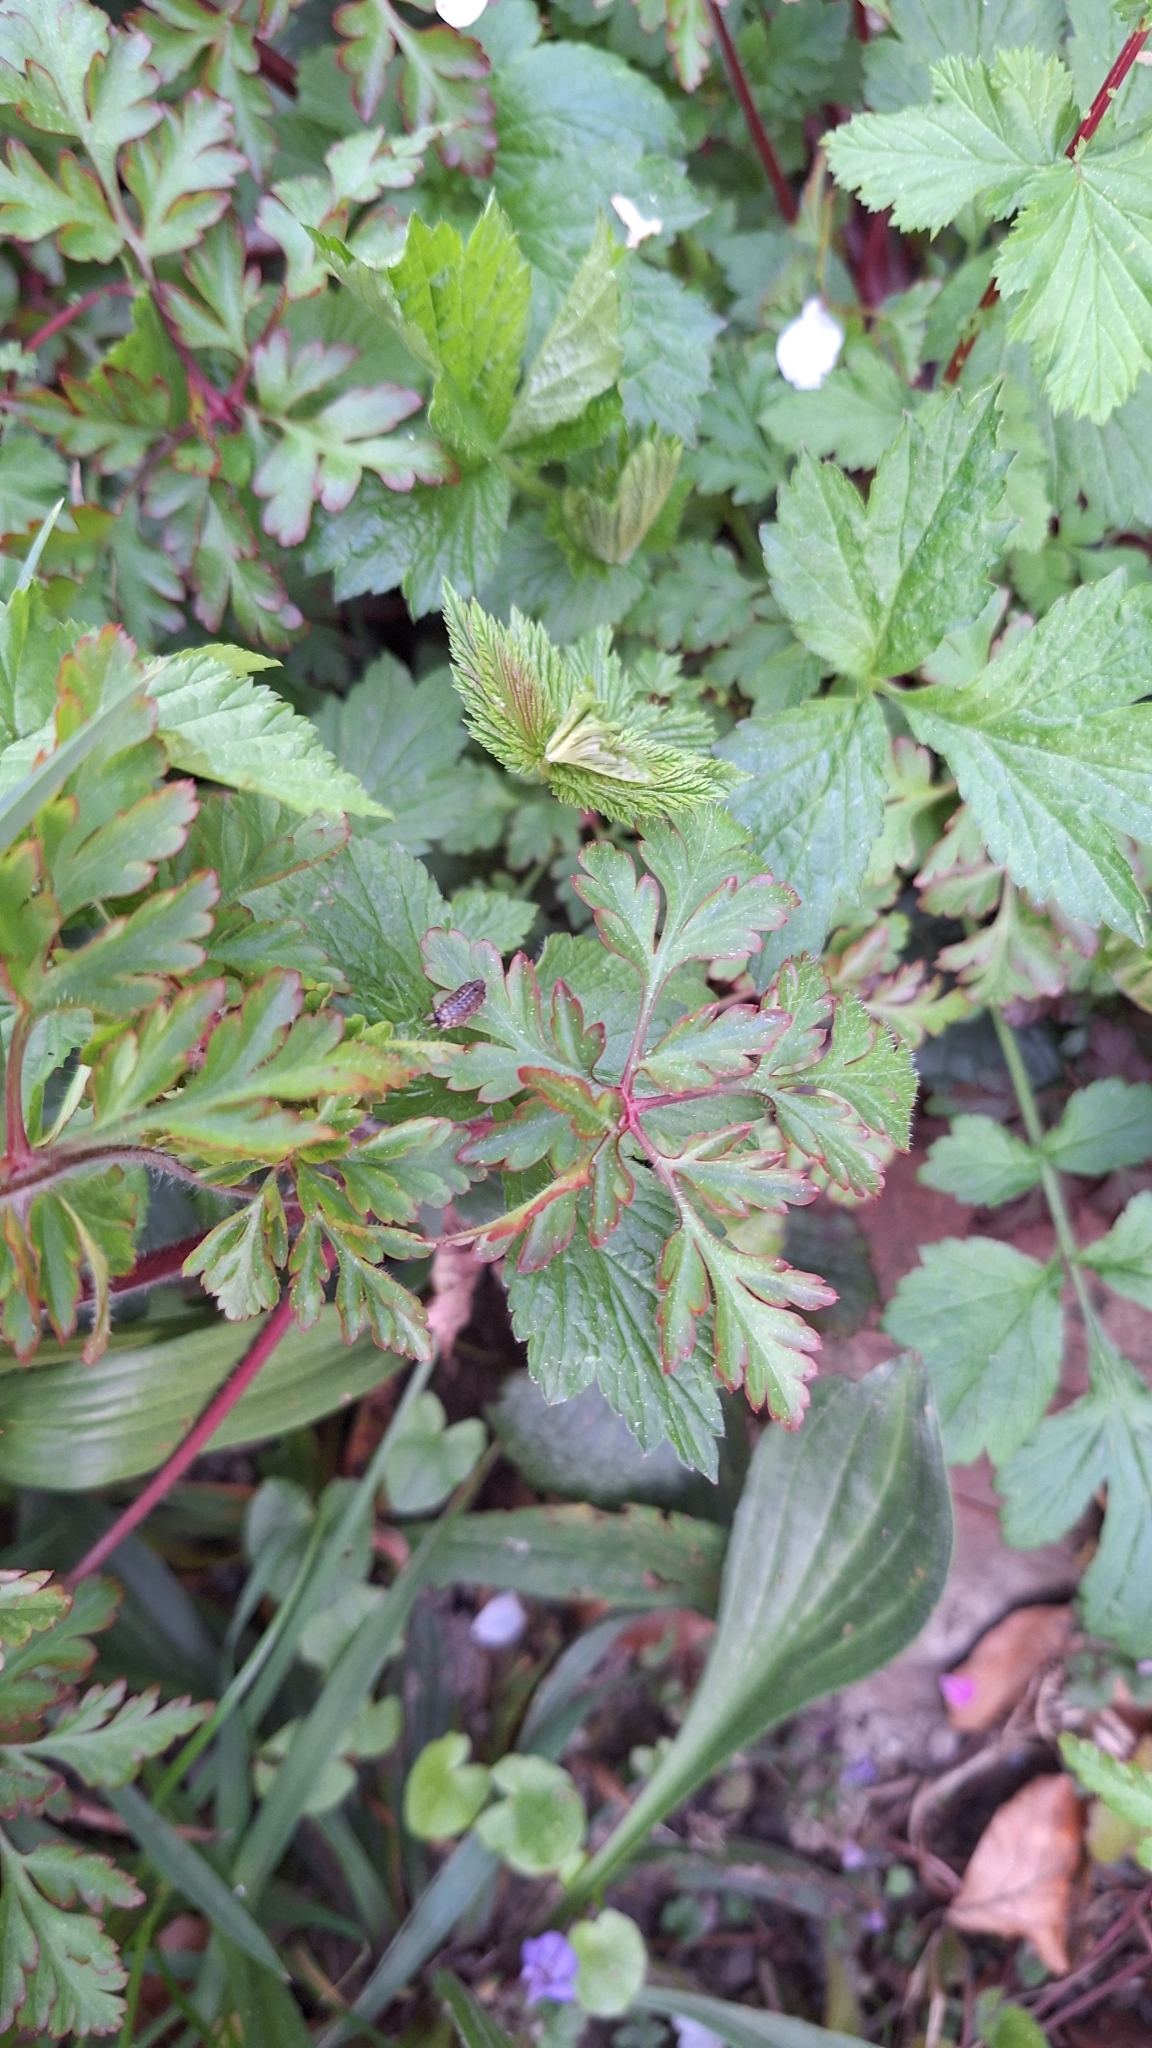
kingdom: Animalia
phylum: Arthropoda
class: Malacostraca
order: Isopoda
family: Philosciidae
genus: Philoscia
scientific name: Philoscia muscorum
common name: Common striped woodlouse
